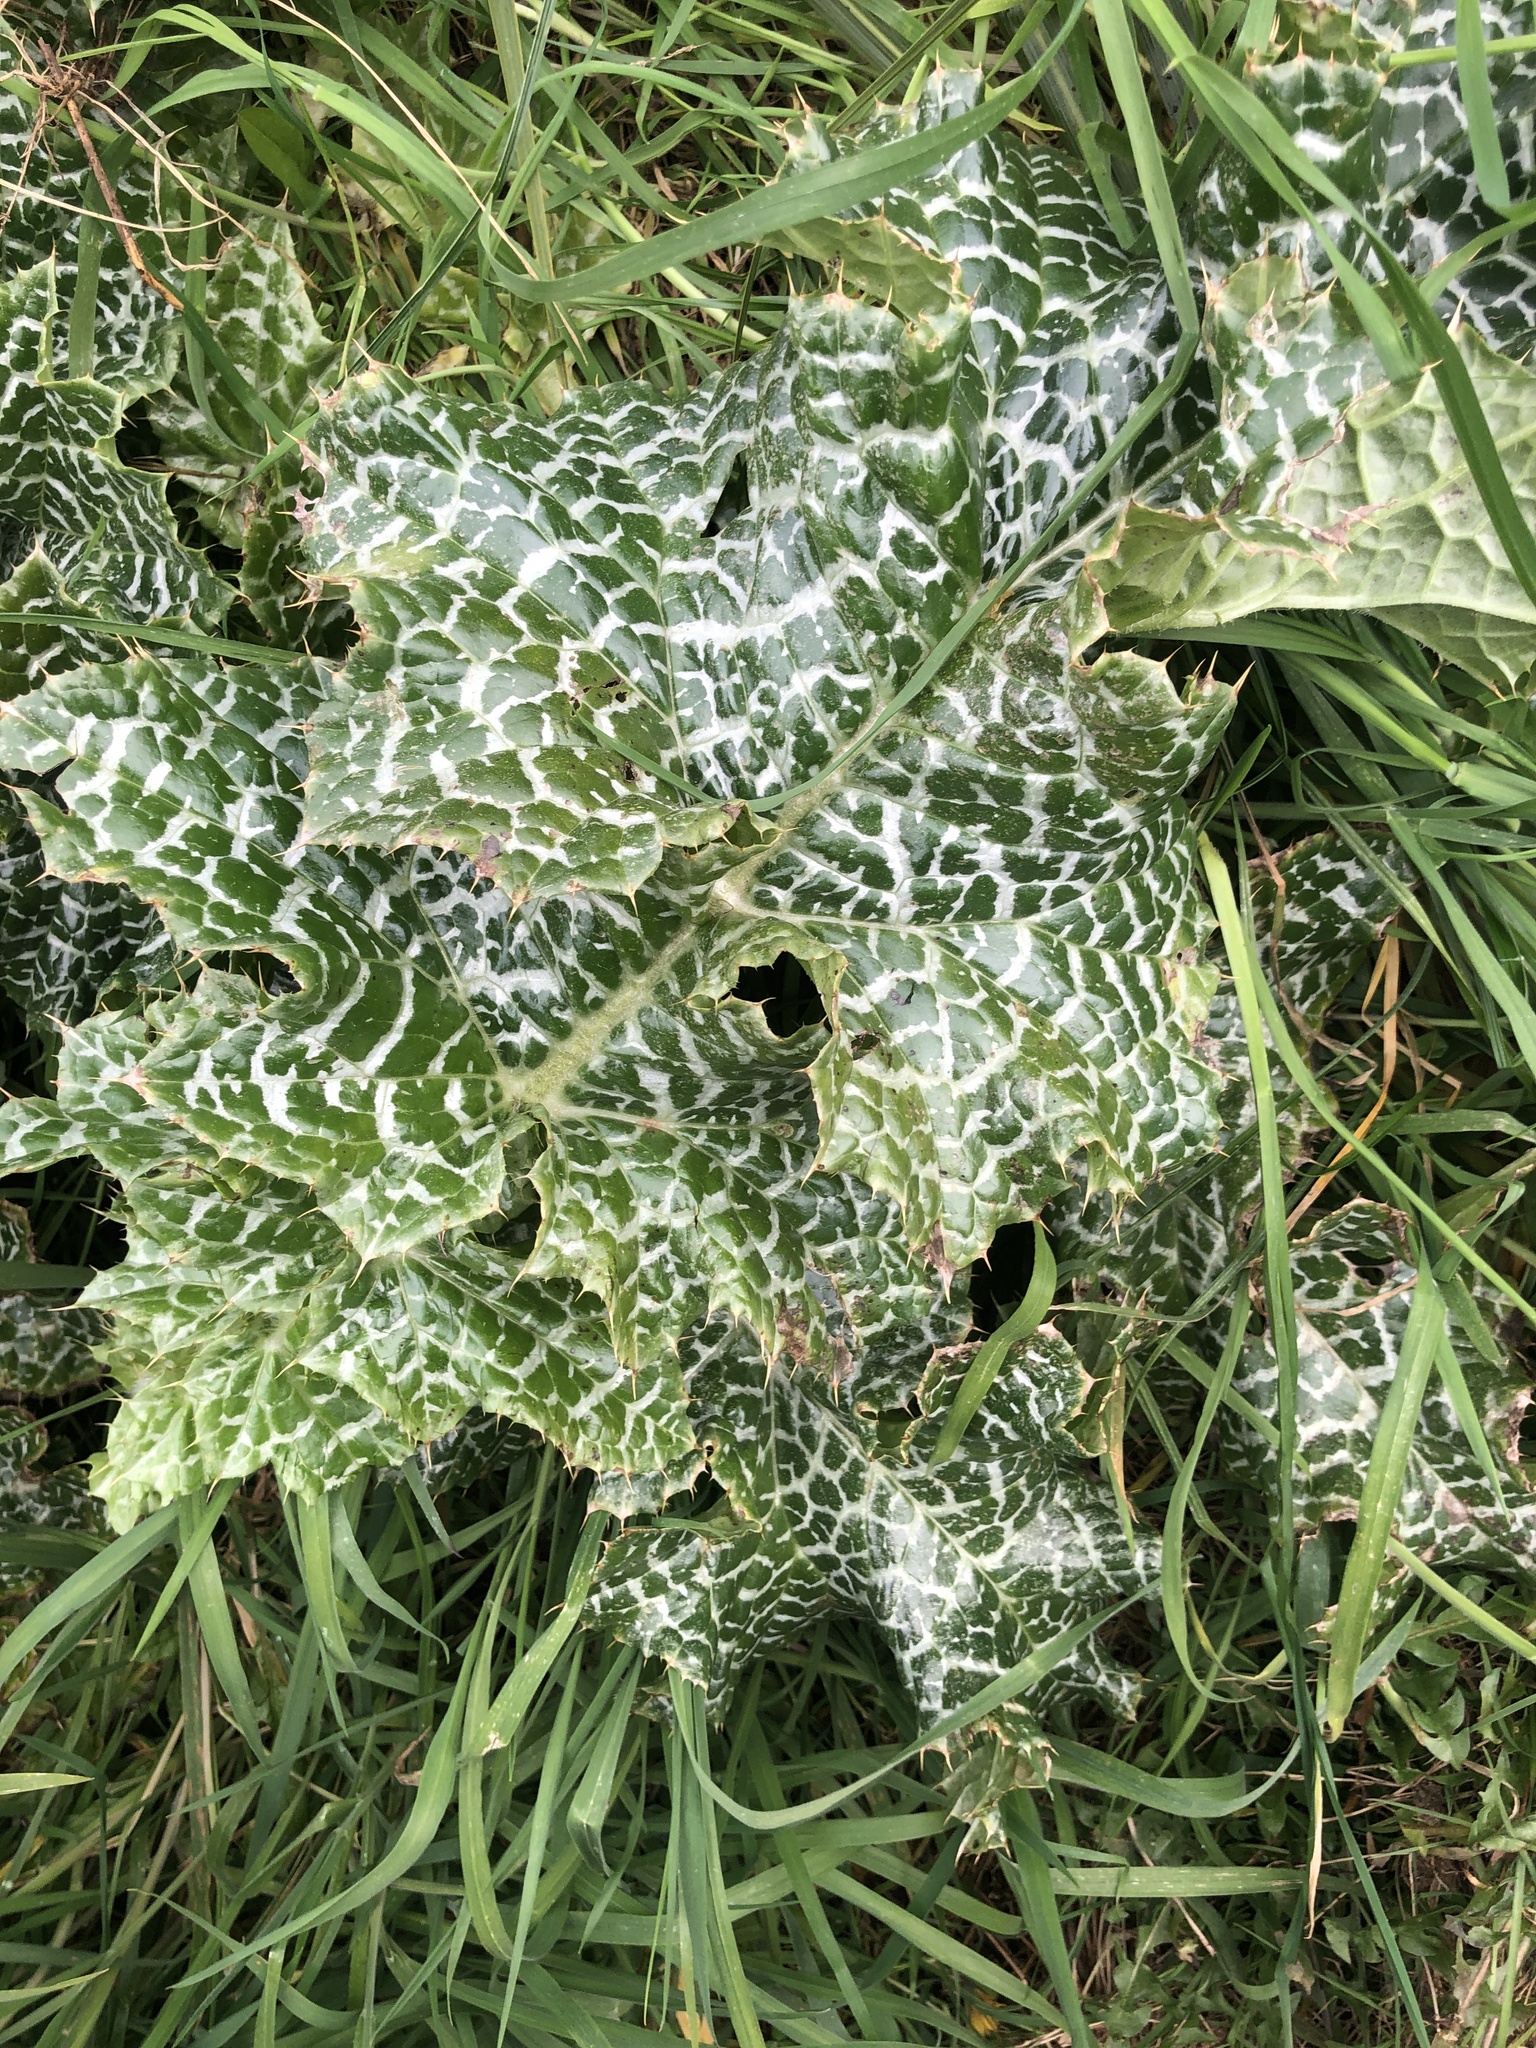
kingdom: Plantae
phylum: Tracheophyta
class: Magnoliopsida
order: Asterales
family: Asteraceae
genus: Silybum
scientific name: Silybum marianum
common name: Milk thistle
